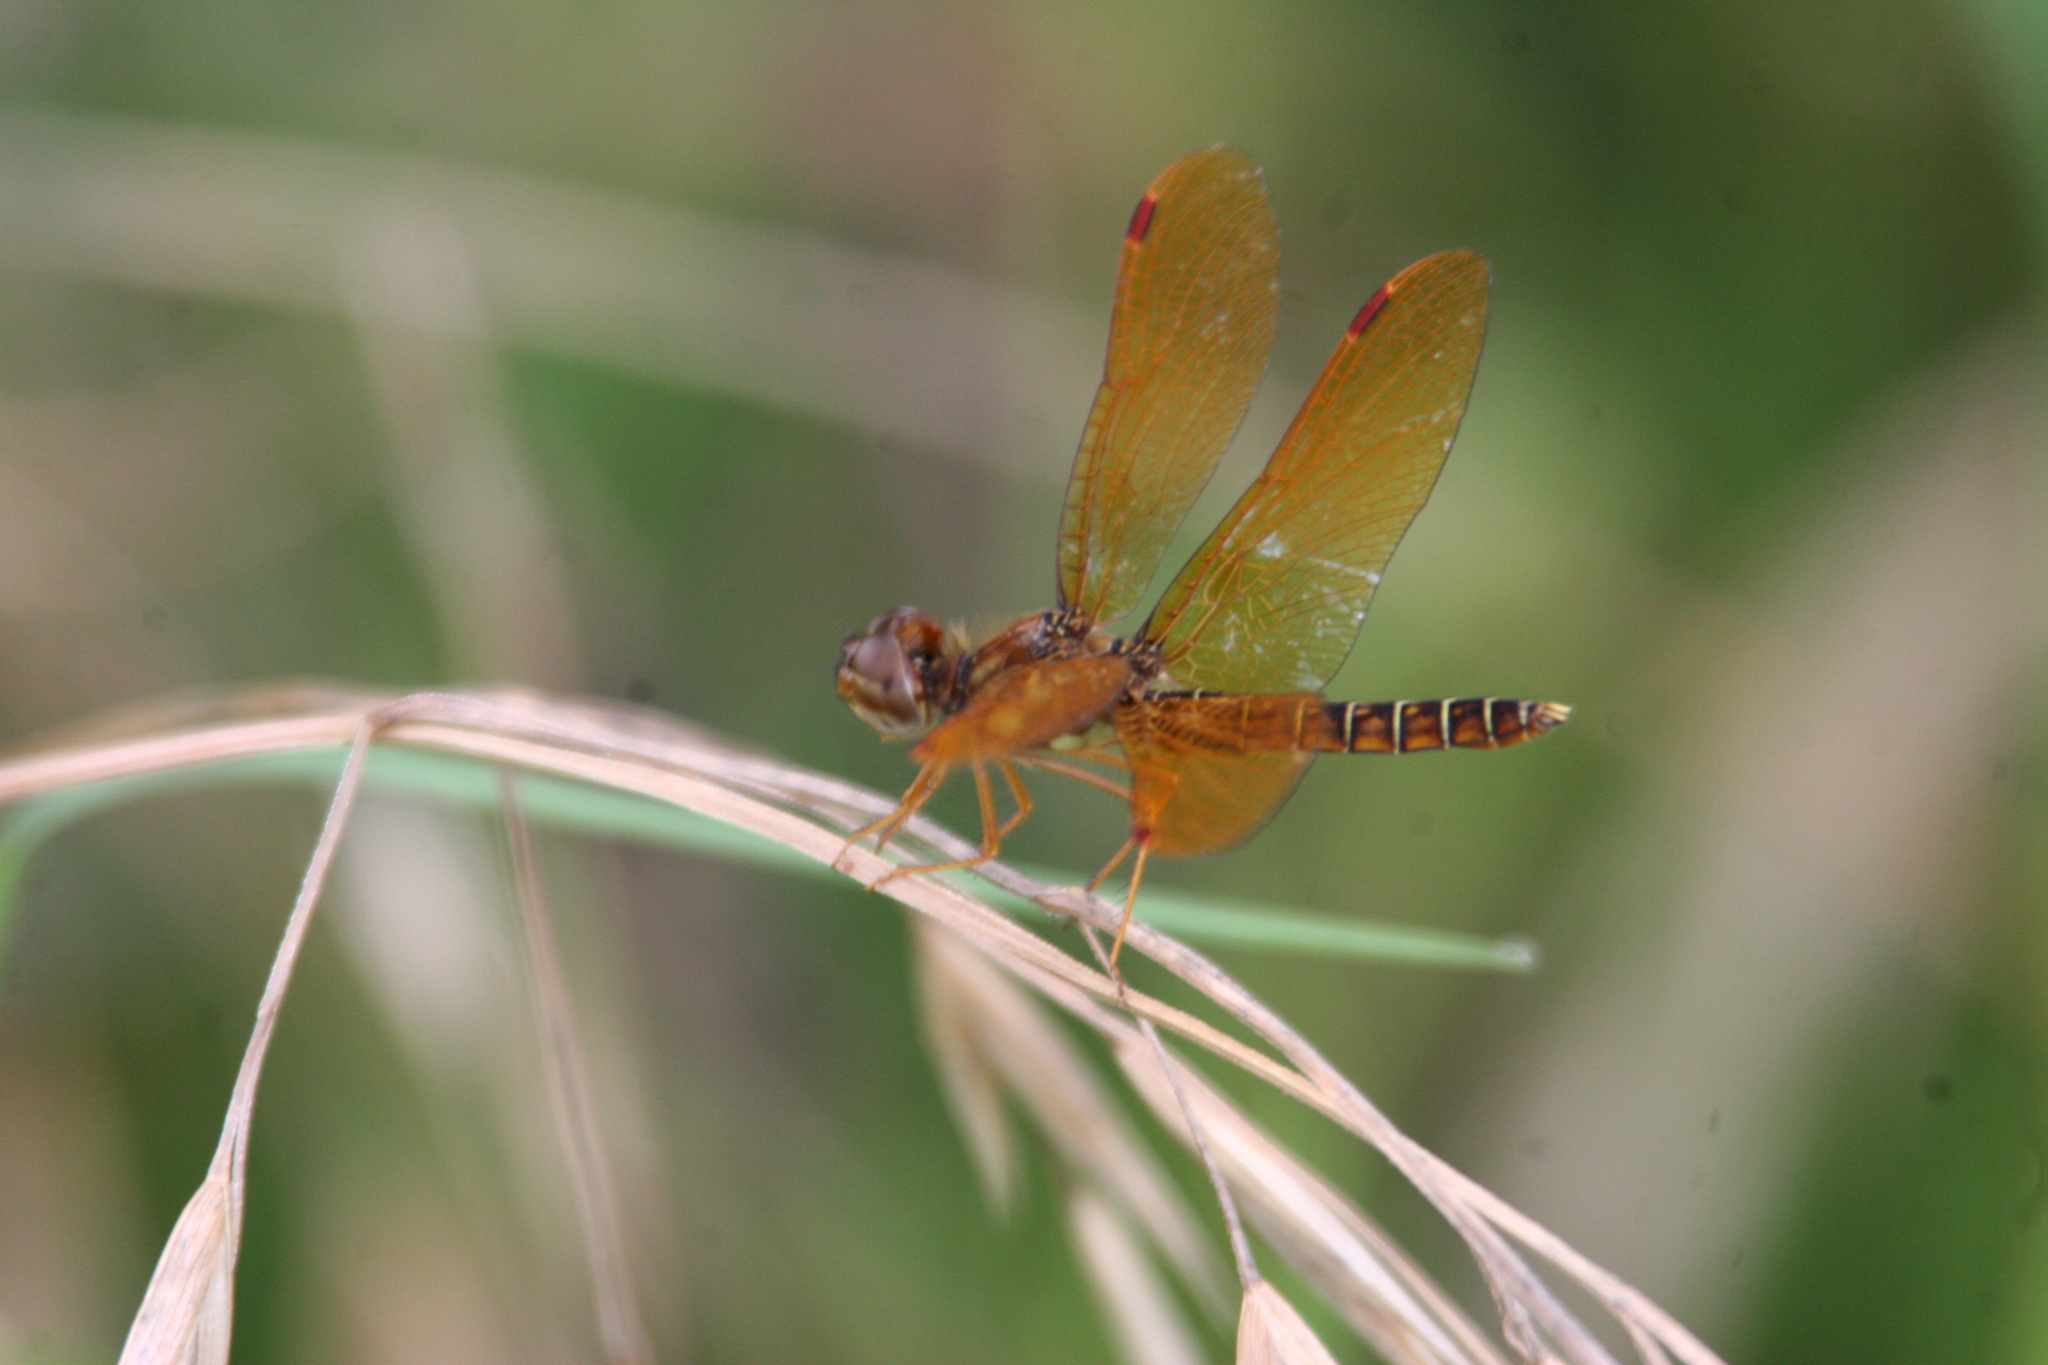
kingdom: Animalia
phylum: Arthropoda
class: Insecta
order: Odonata
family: Libellulidae
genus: Perithemis
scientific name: Perithemis tenera
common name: Eastern amberwing
